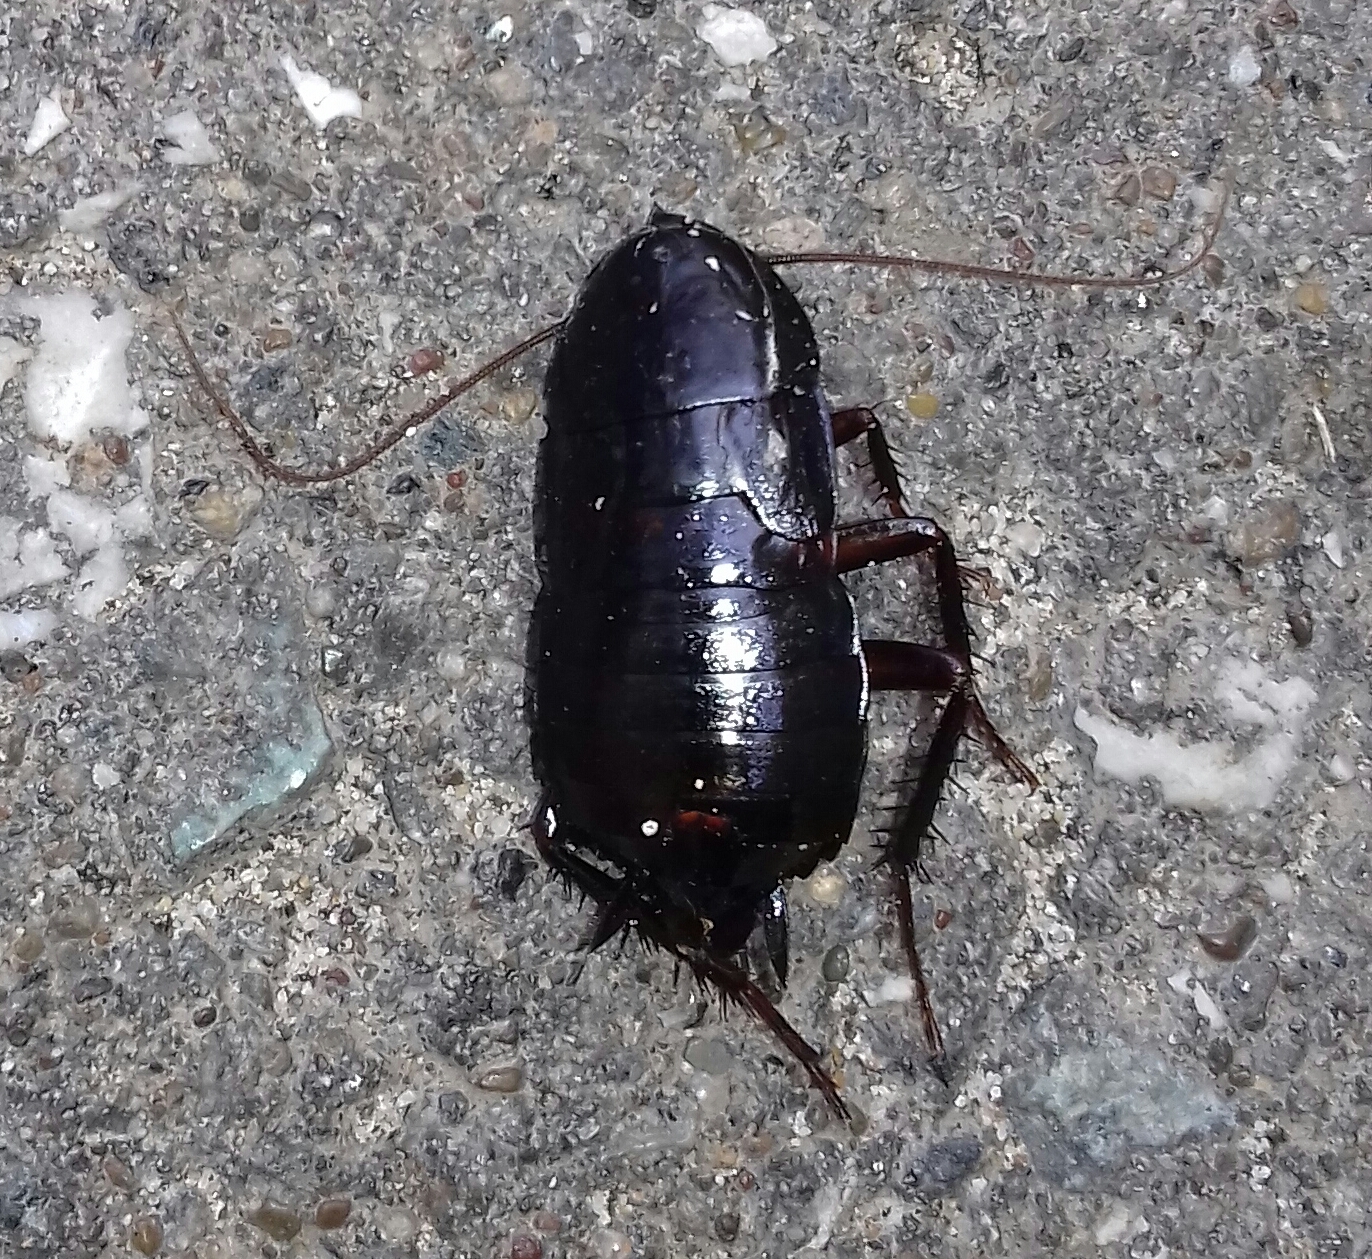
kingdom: Animalia
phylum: Arthropoda
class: Insecta
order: Blattodea
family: Blattidae
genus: Blatta
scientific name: Blatta orientalis
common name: Oriental cockroach
